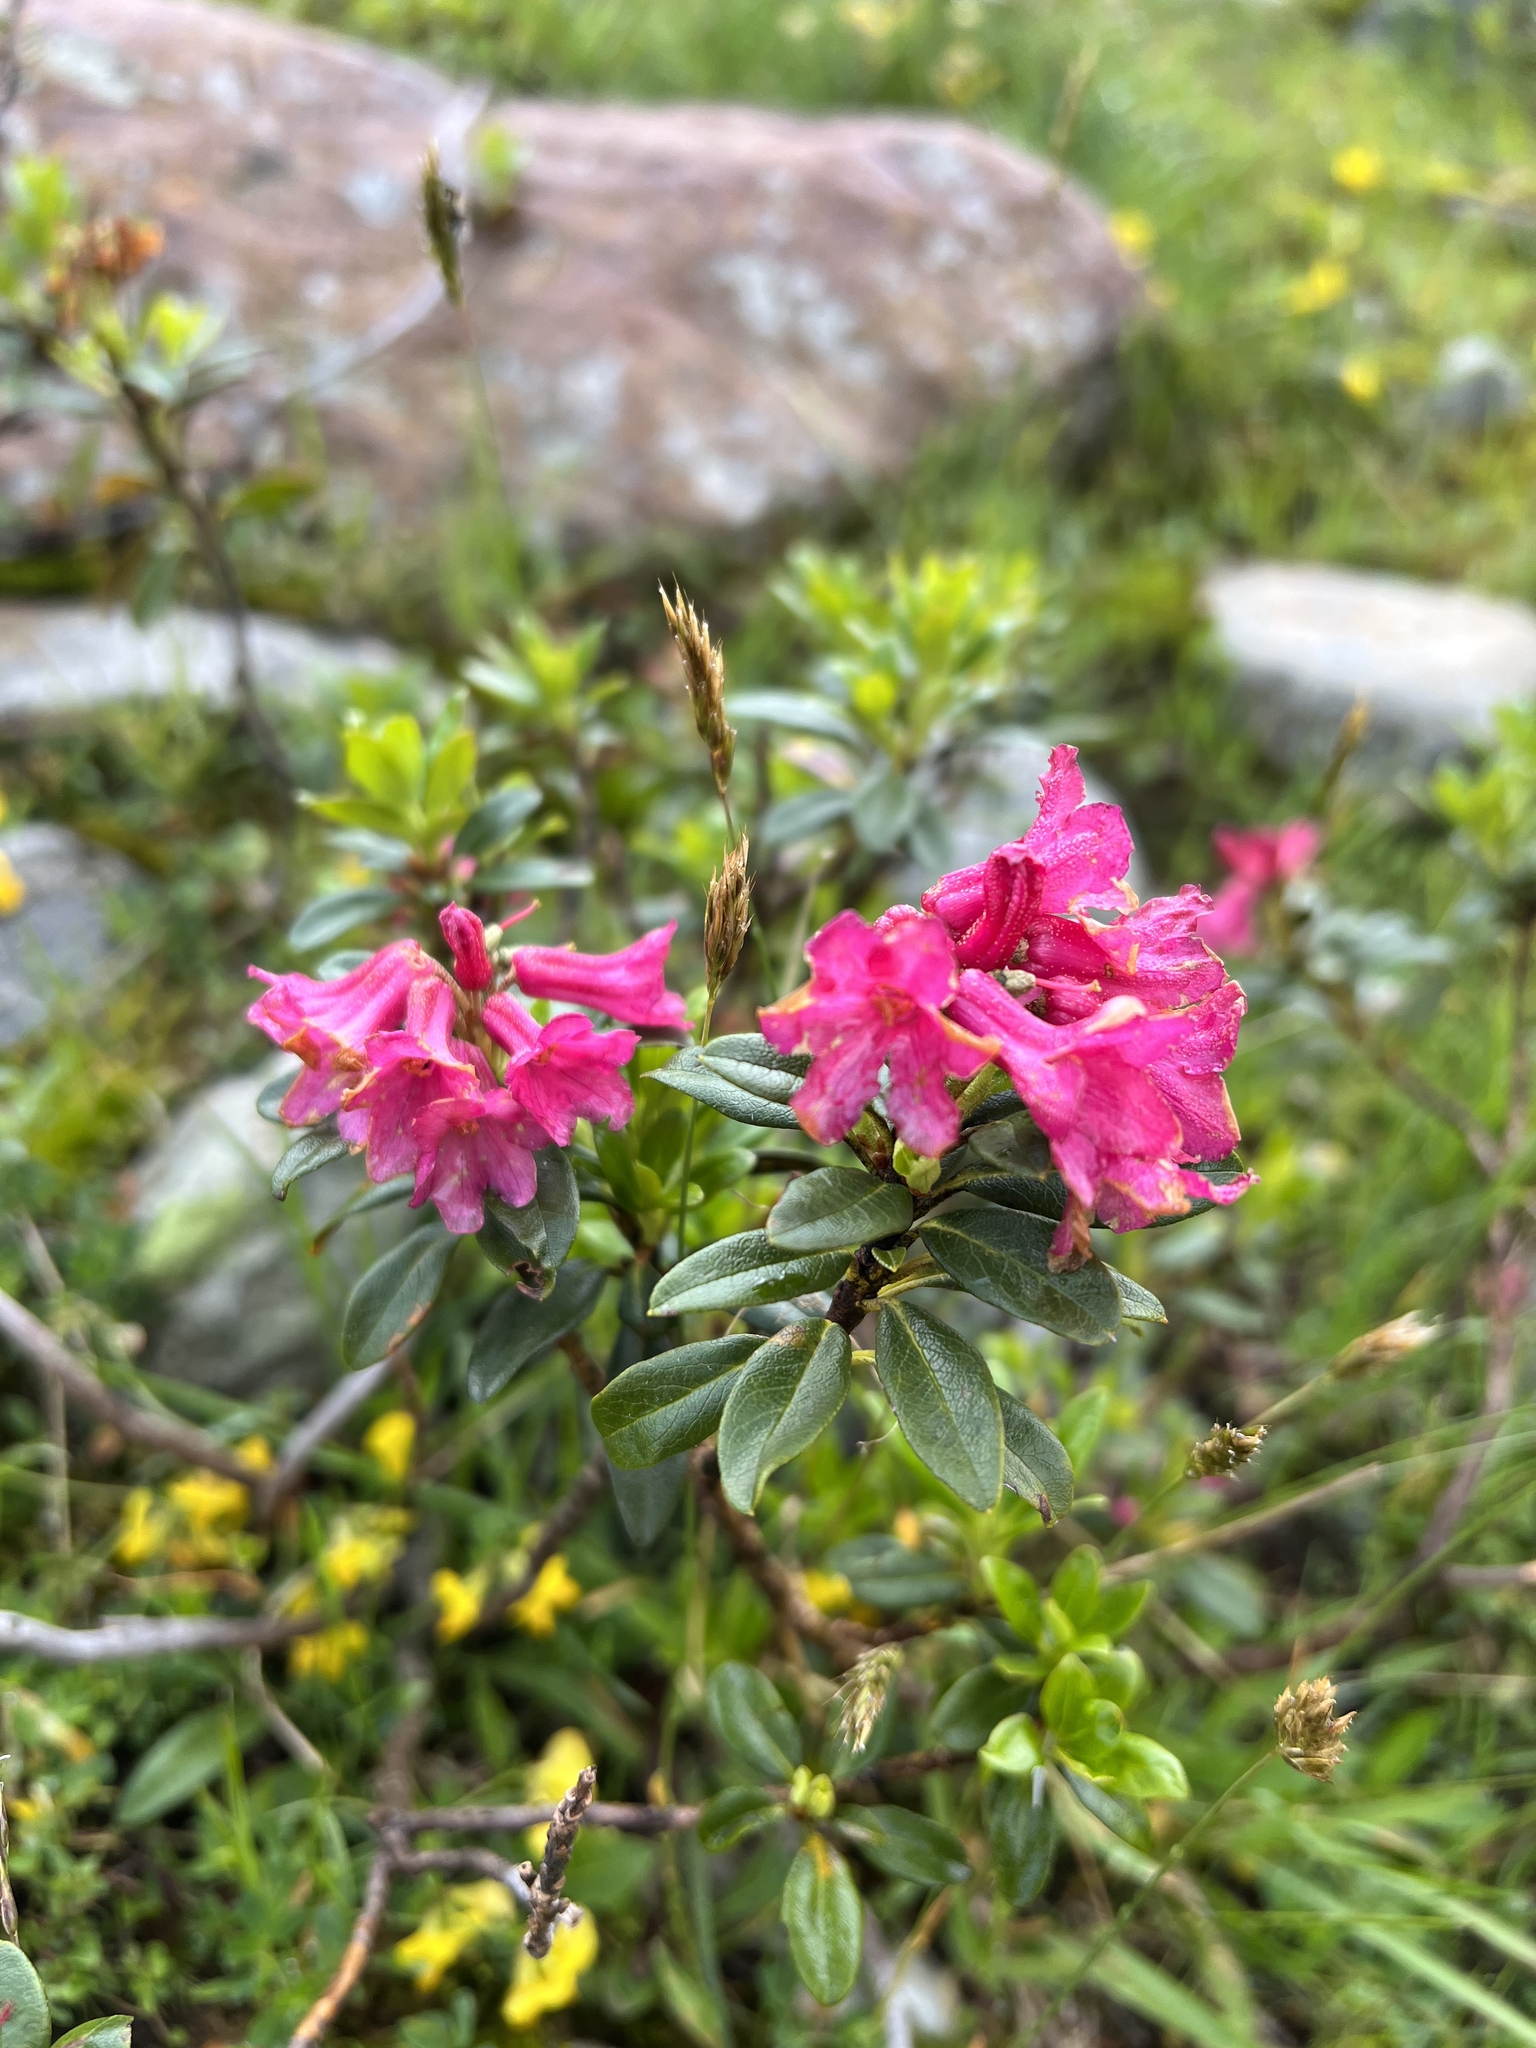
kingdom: Plantae
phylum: Tracheophyta
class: Magnoliopsida
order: Ericales
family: Ericaceae
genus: Rhododendron
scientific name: Rhododendron ferrugineum
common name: Alpenrose
